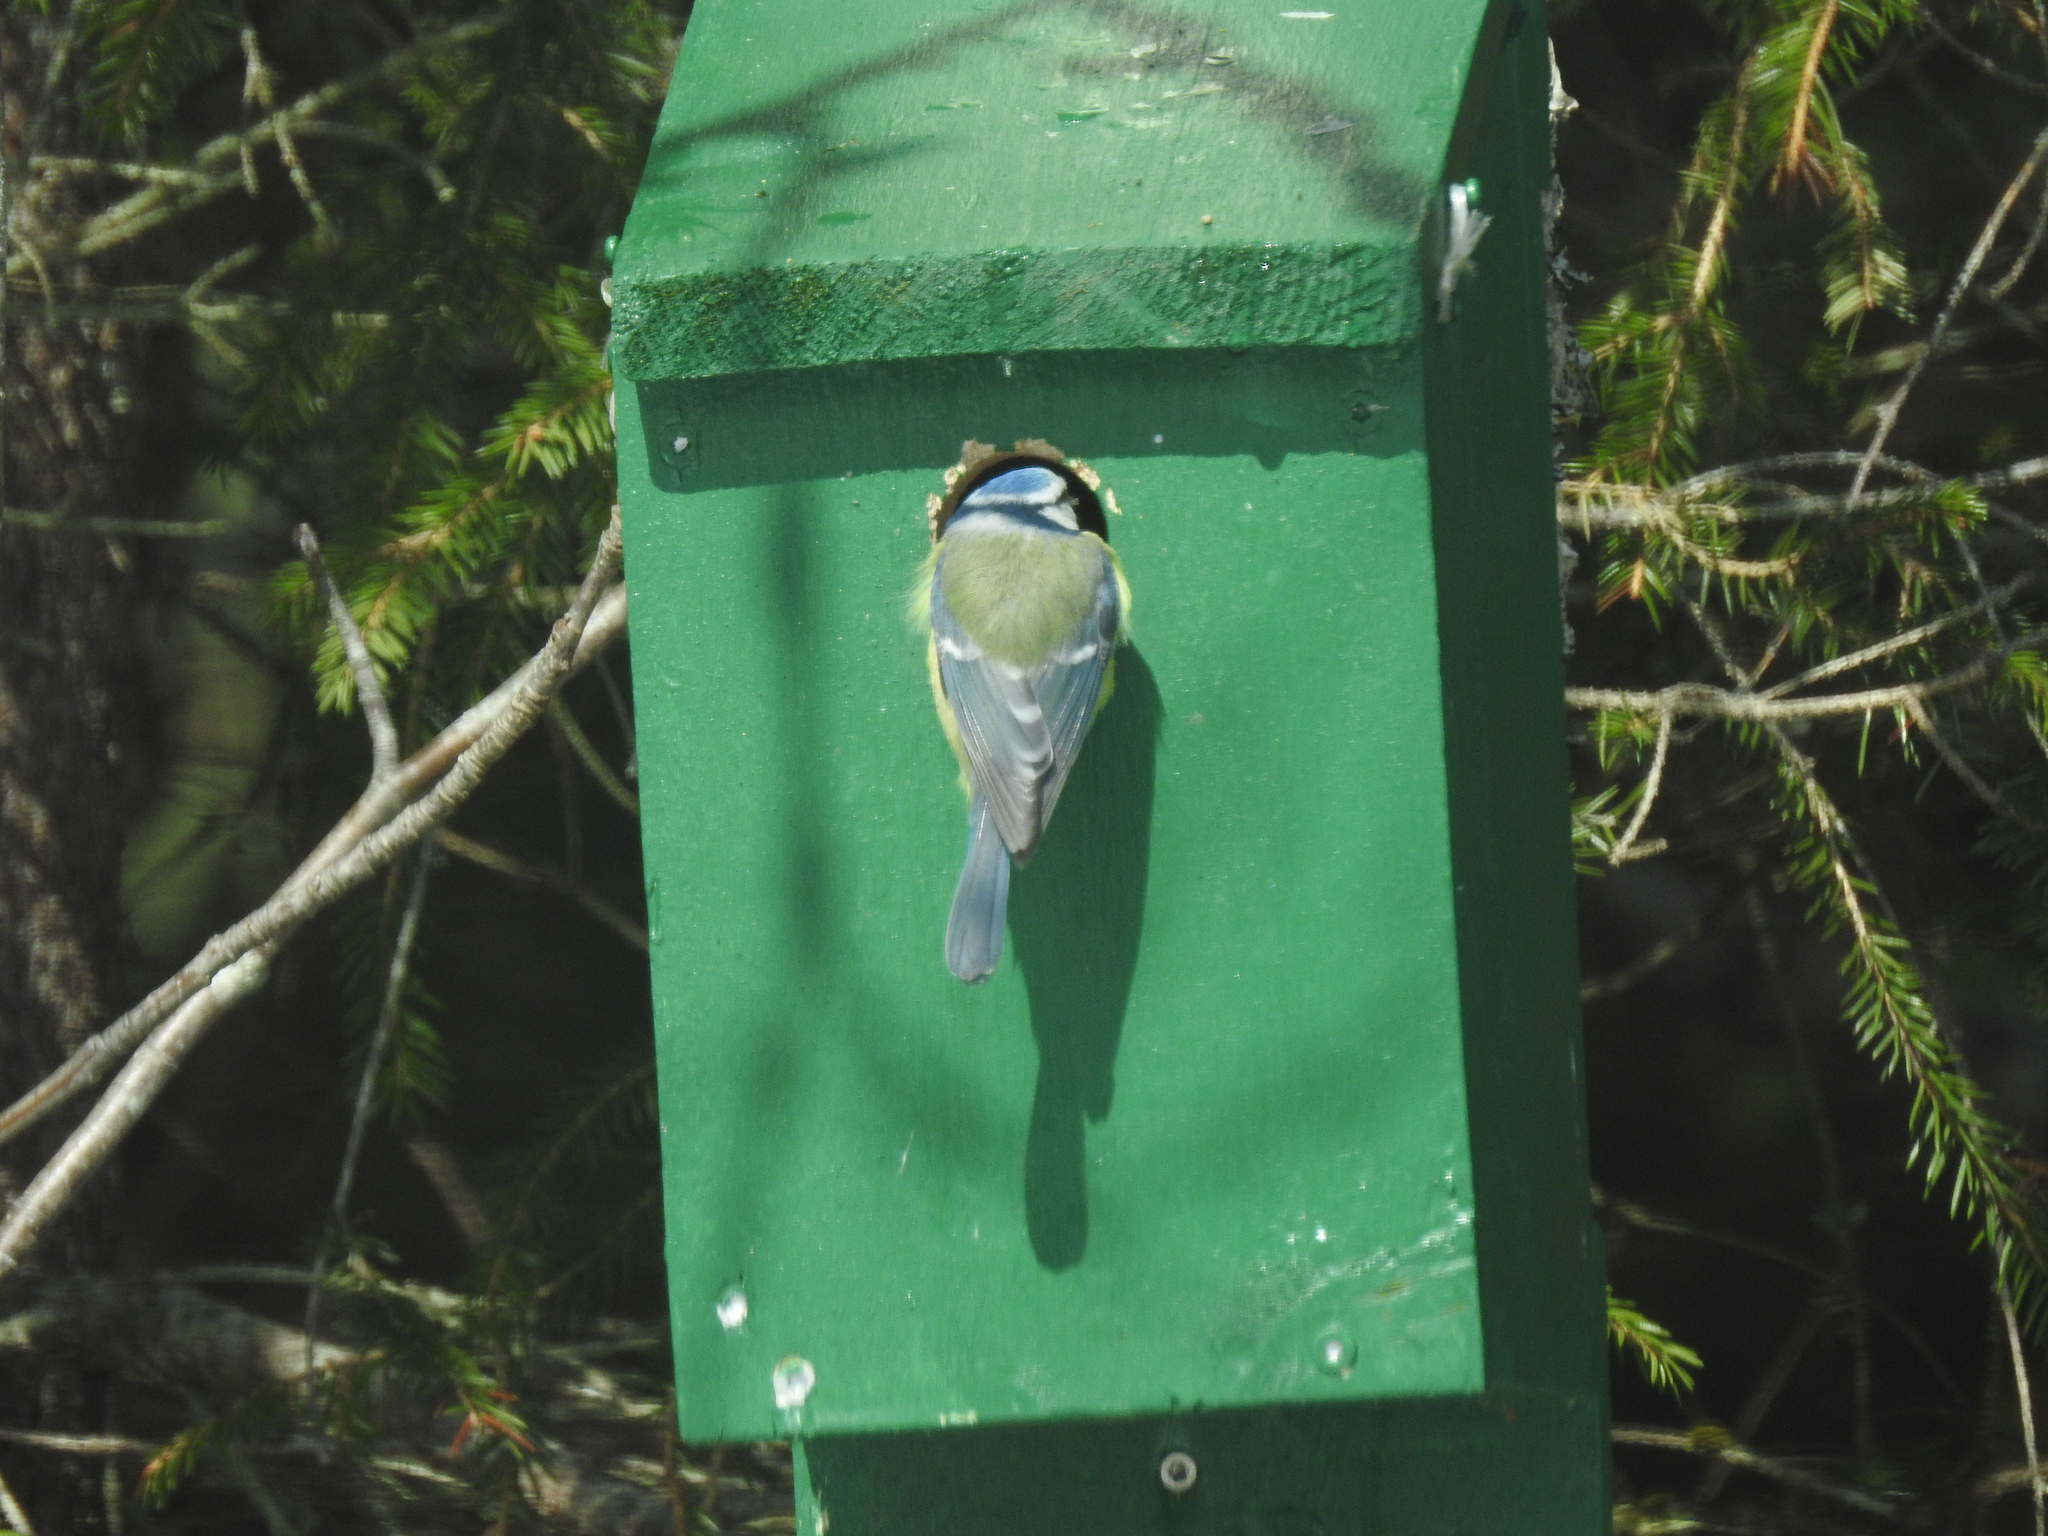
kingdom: Animalia
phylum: Chordata
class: Aves
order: Passeriformes
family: Paridae
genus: Cyanistes
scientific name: Cyanistes caeruleus
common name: Eurasian blue tit
